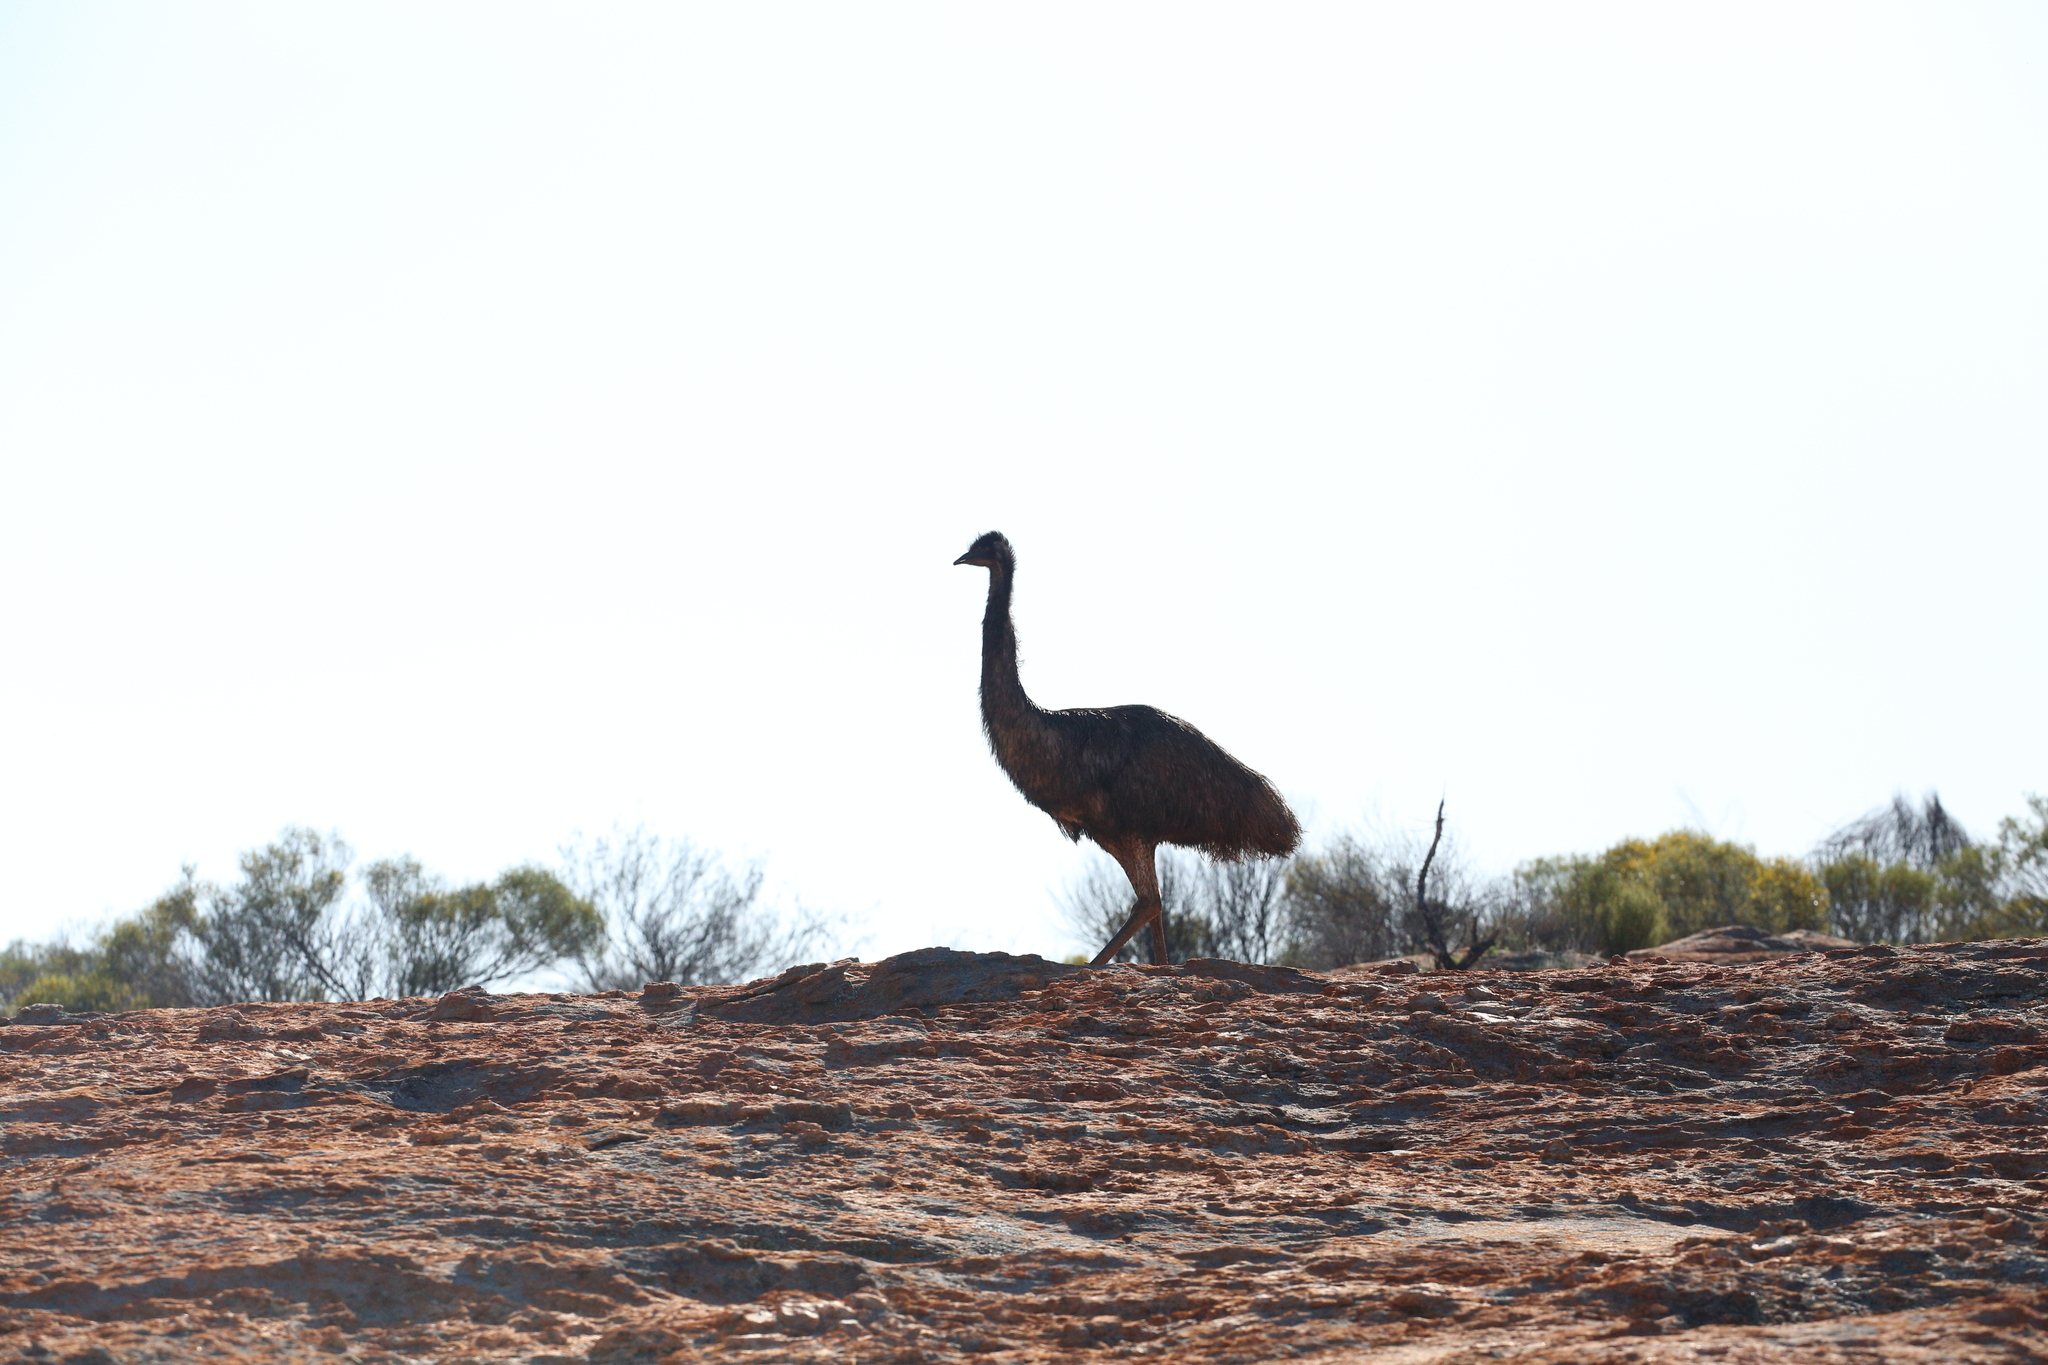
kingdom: Animalia
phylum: Chordata
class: Aves
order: Casuariiformes
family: Dromaiidae
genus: Dromaius
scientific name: Dromaius novaehollandiae
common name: Emu
